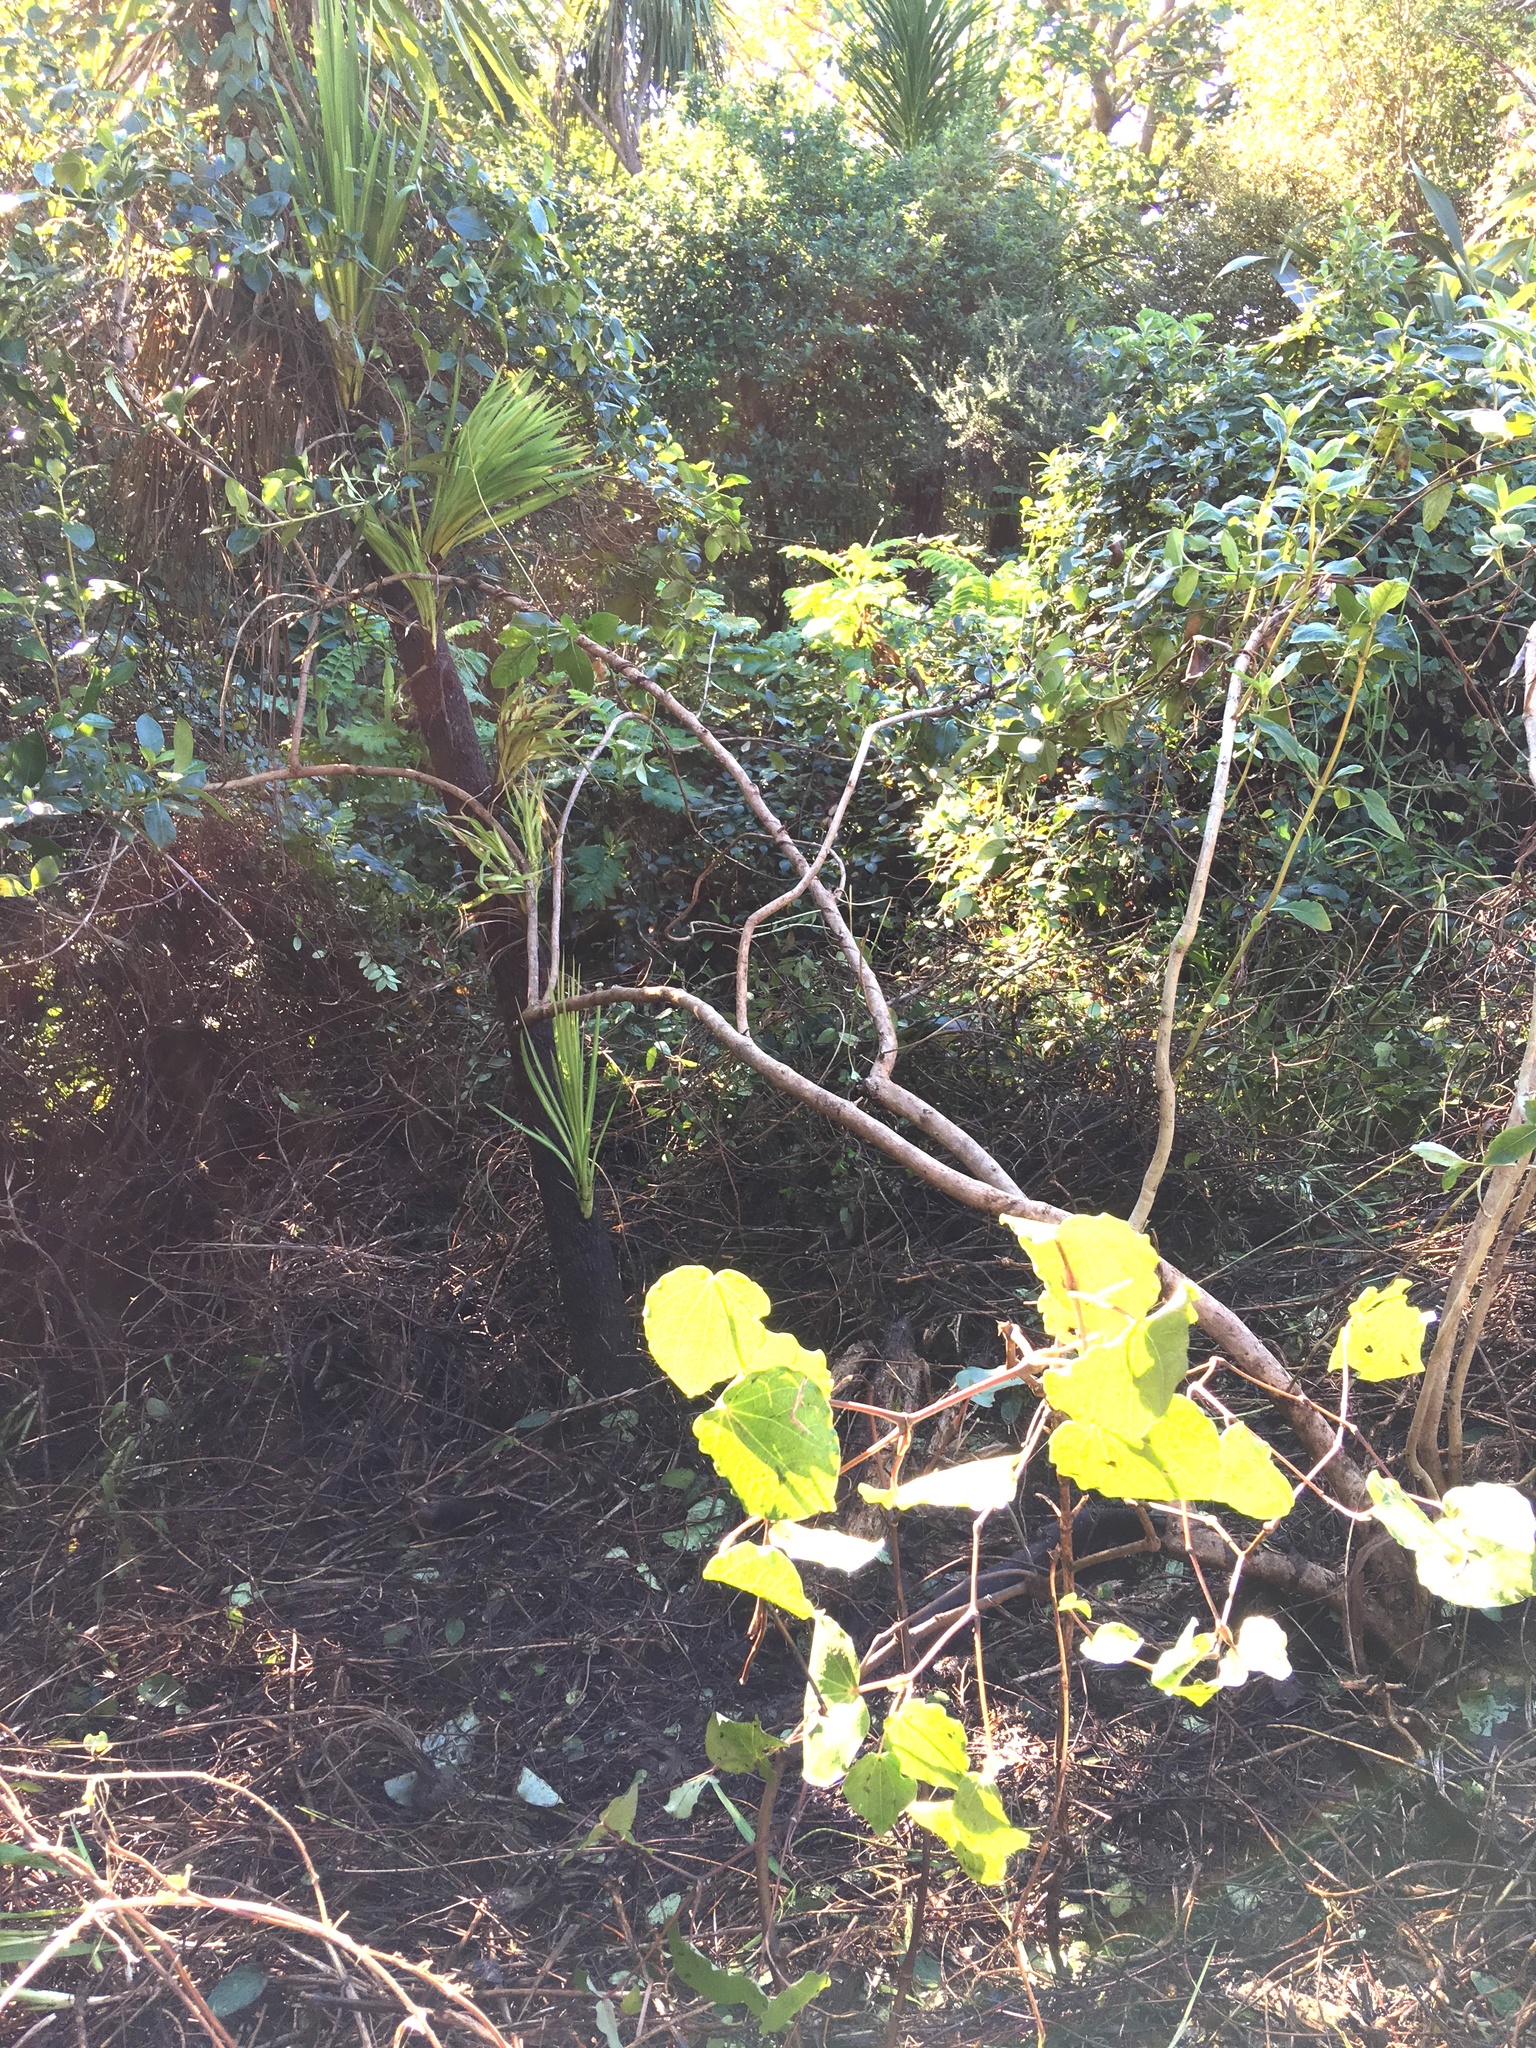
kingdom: Plantae
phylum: Tracheophyta
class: Liliopsida
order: Asparagales
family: Asparagaceae
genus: Cordyline
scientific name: Cordyline australis
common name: Cabbage-palm
